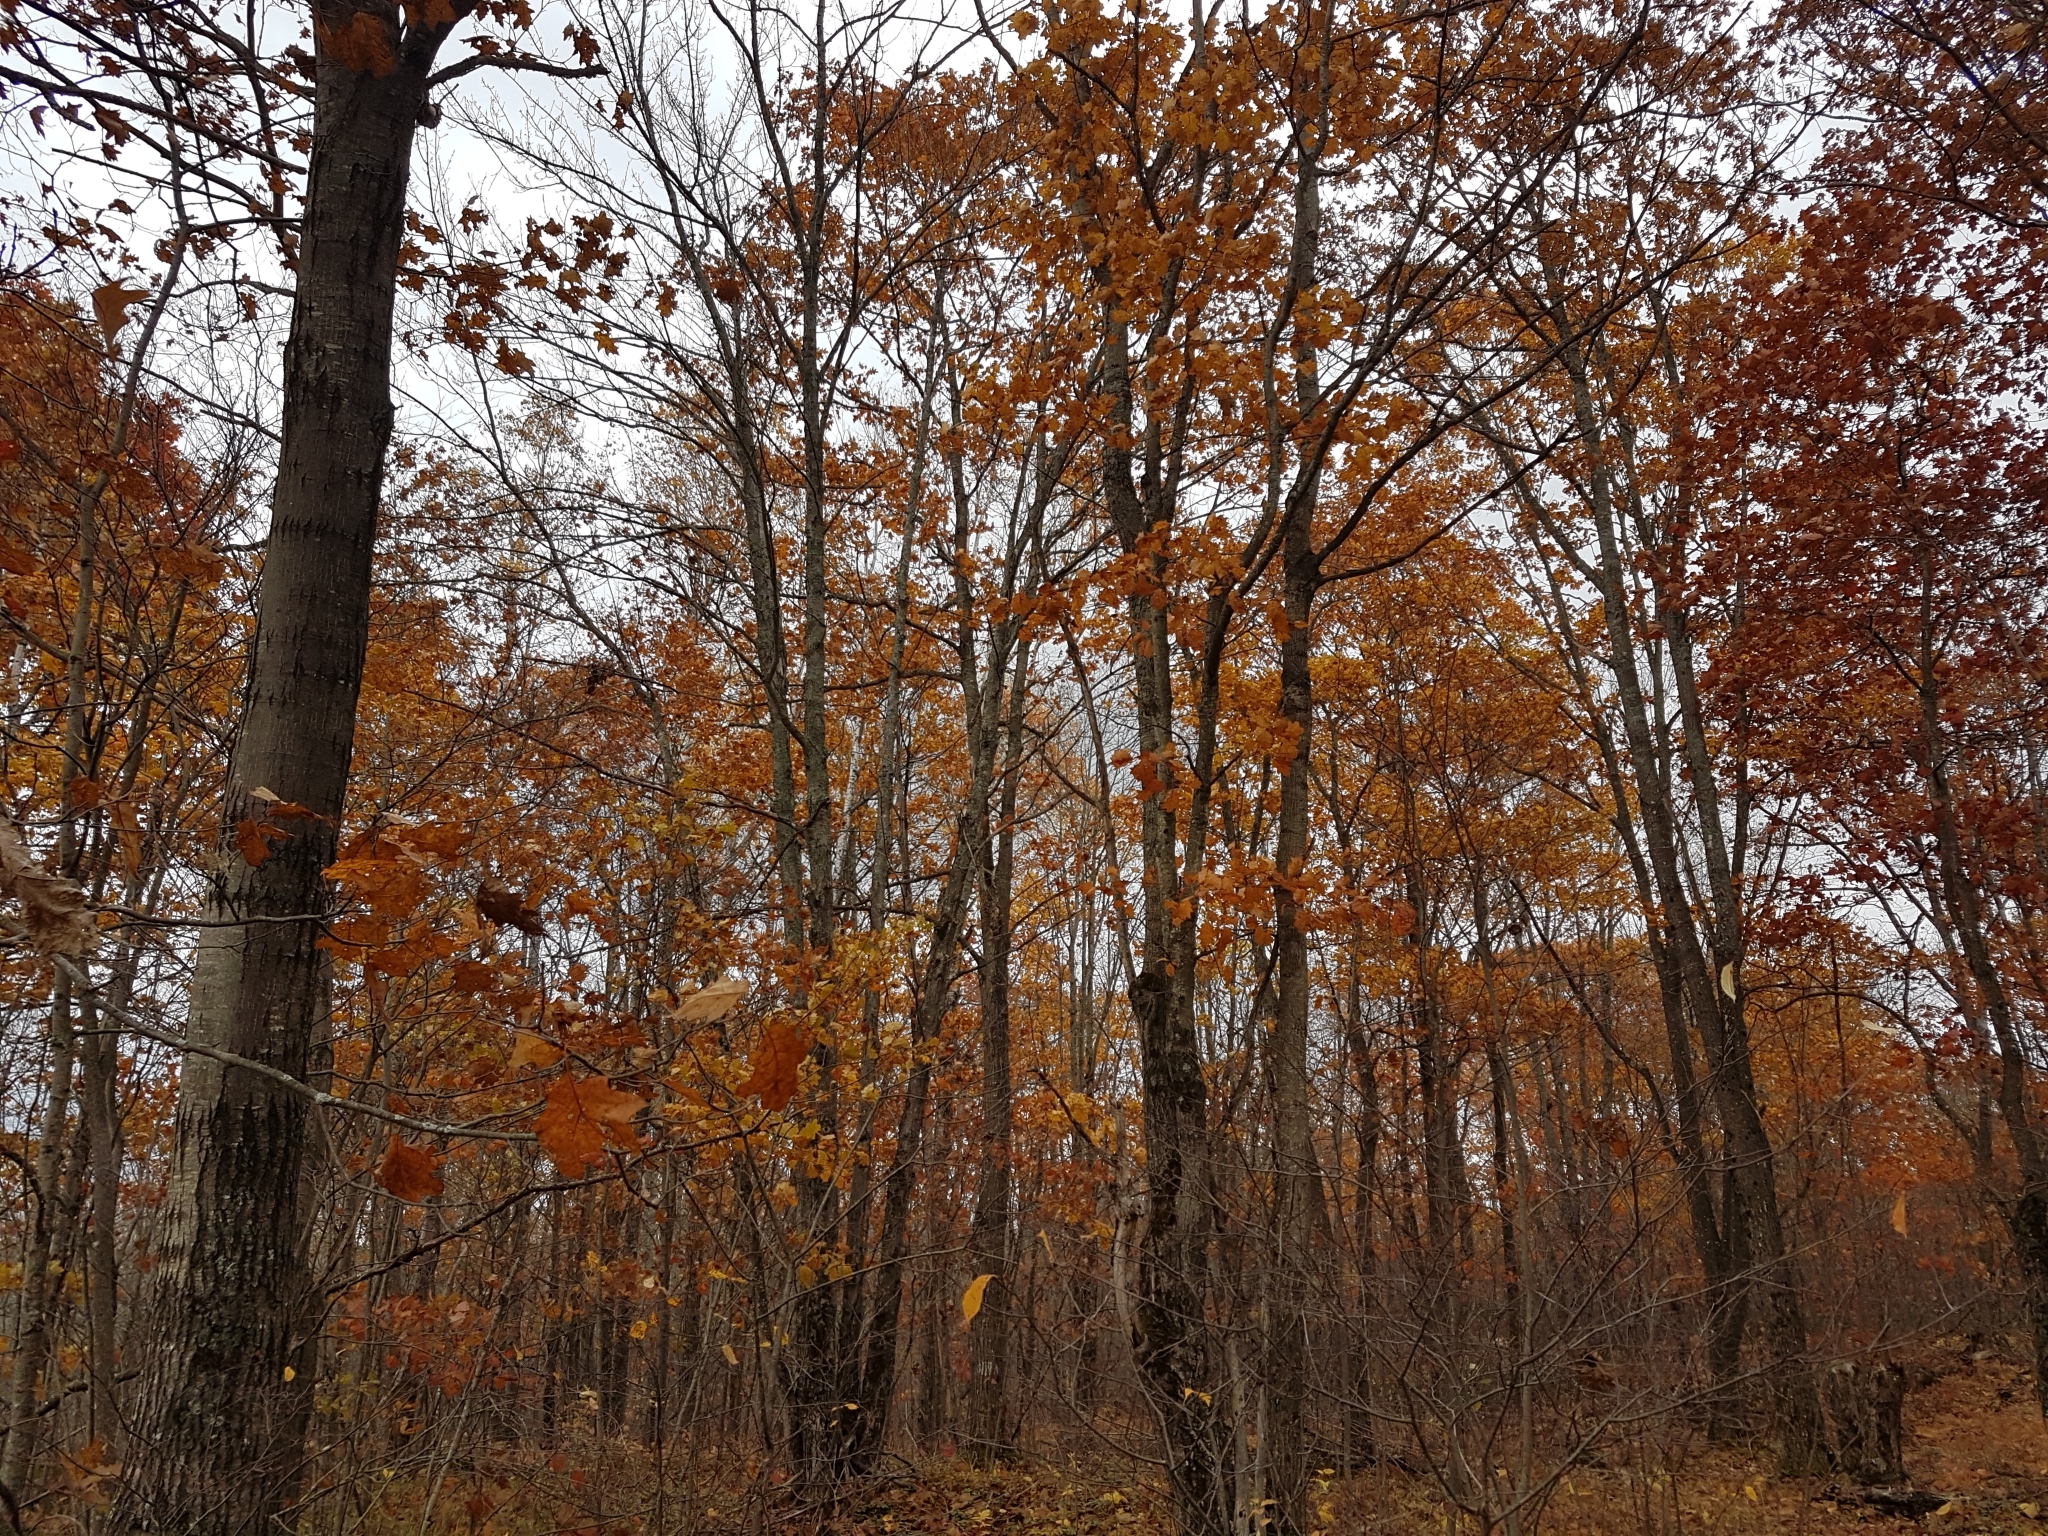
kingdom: Plantae
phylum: Tracheophyta
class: Magnoliopsida
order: Fagales
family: Fagaceae
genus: Quercus
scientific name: Quercus rubra
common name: Red oak
